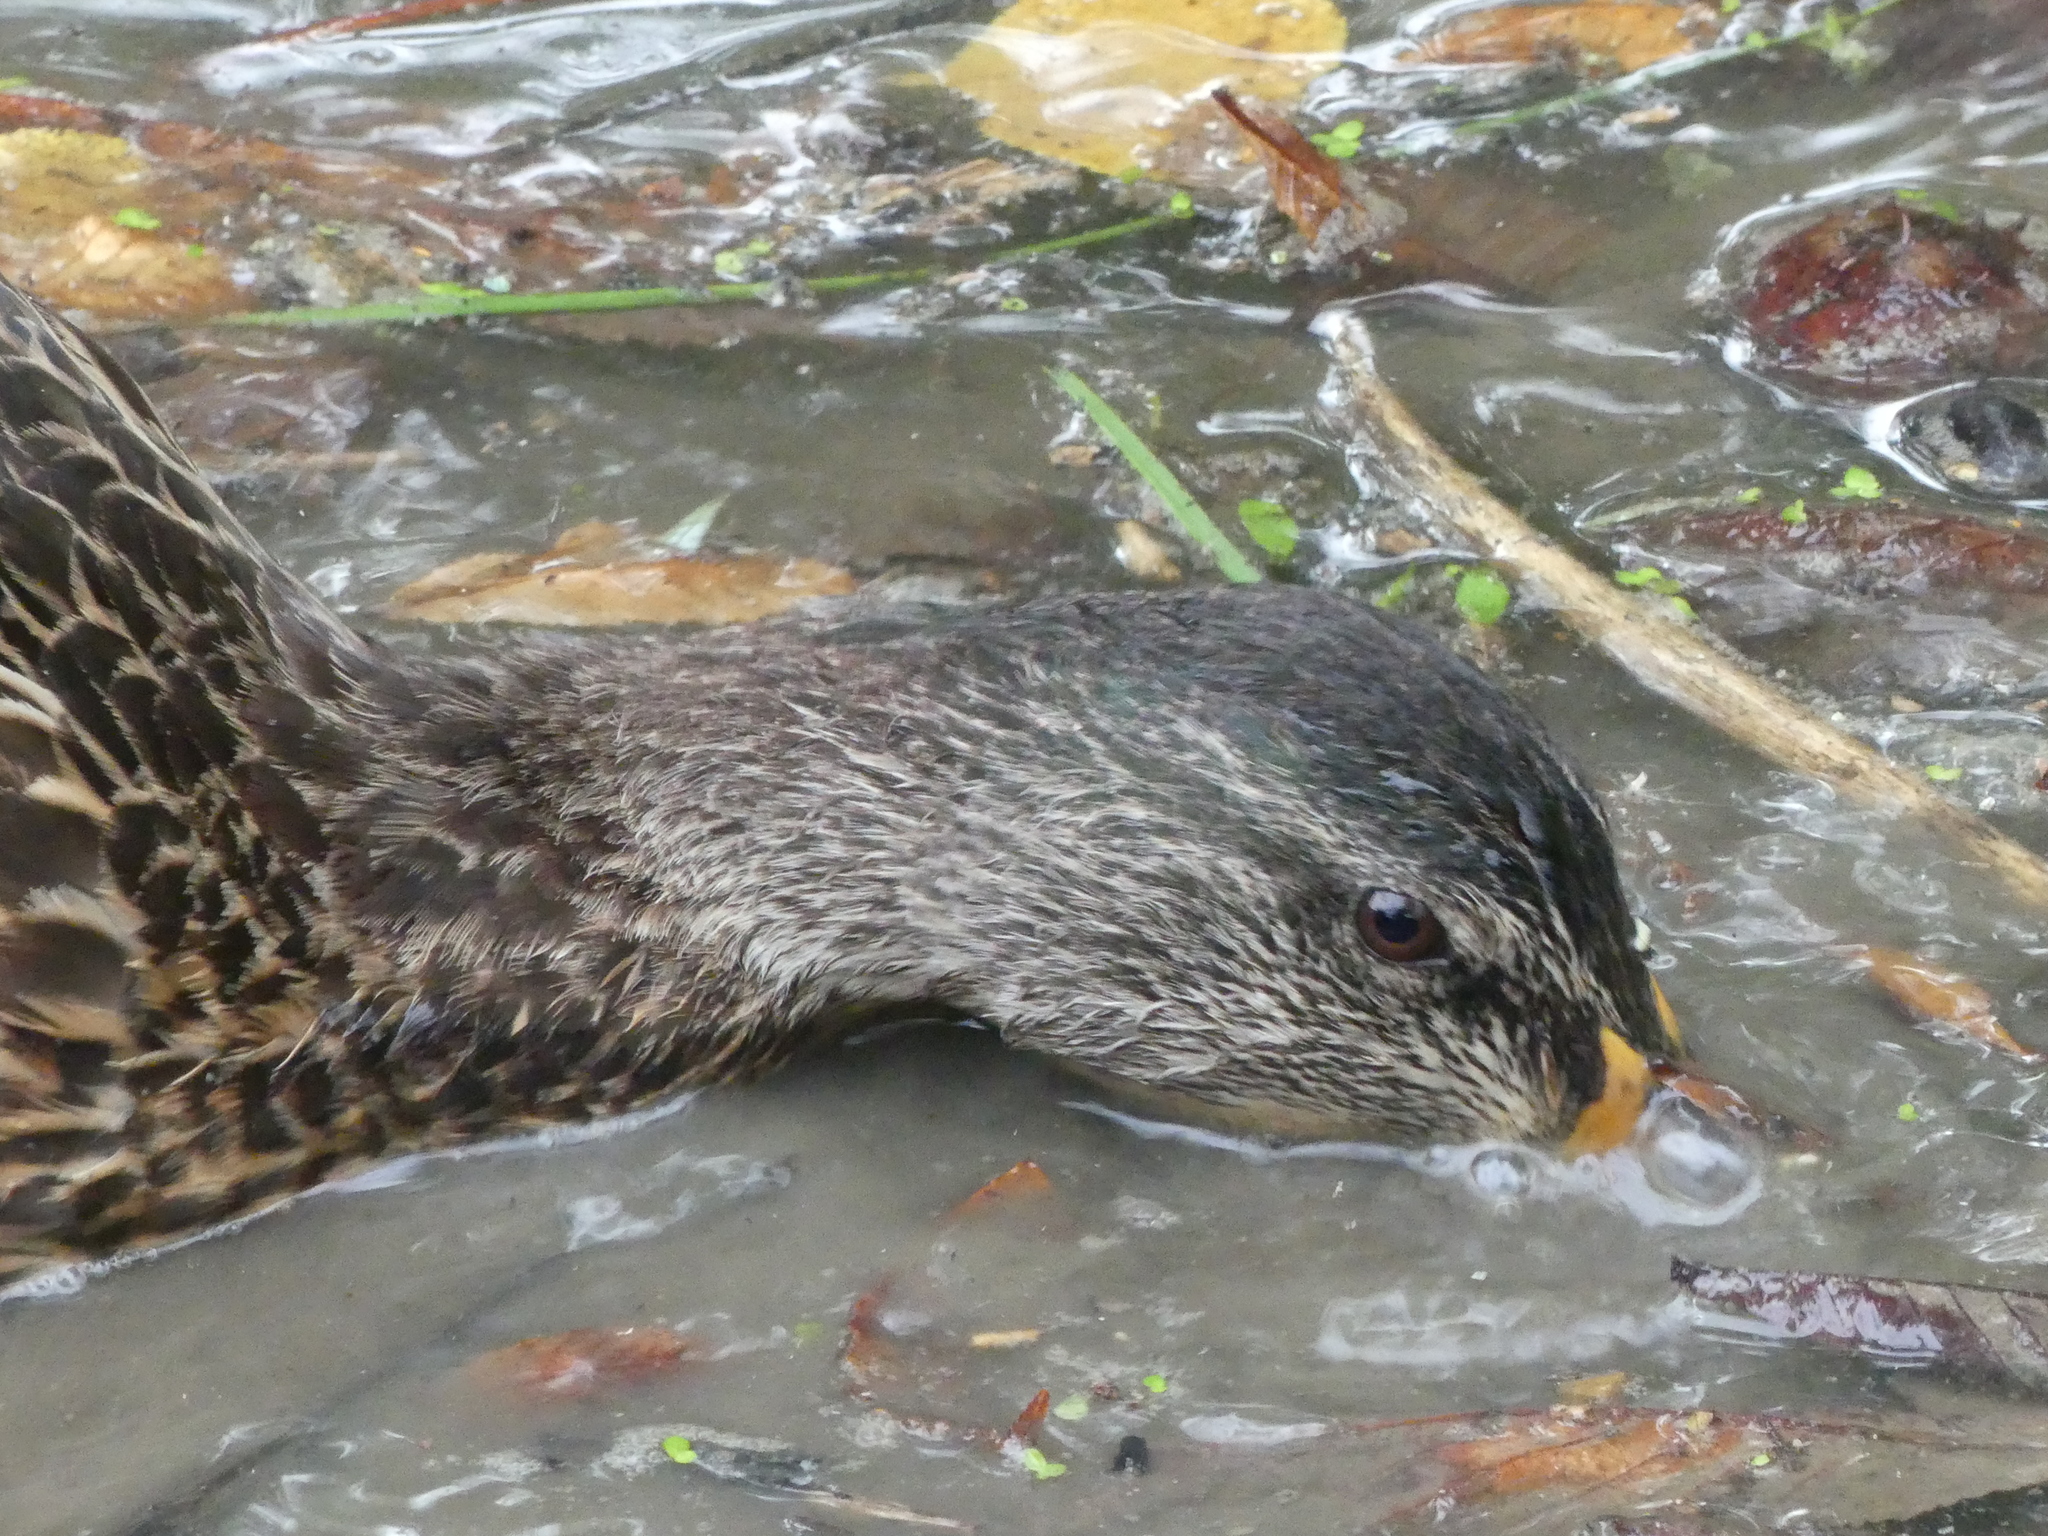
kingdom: Animalia
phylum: Chordata
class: Aves
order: Anseriformes
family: Anatidae
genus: Anas
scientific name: Anas platyrhynchos
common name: Mallard
